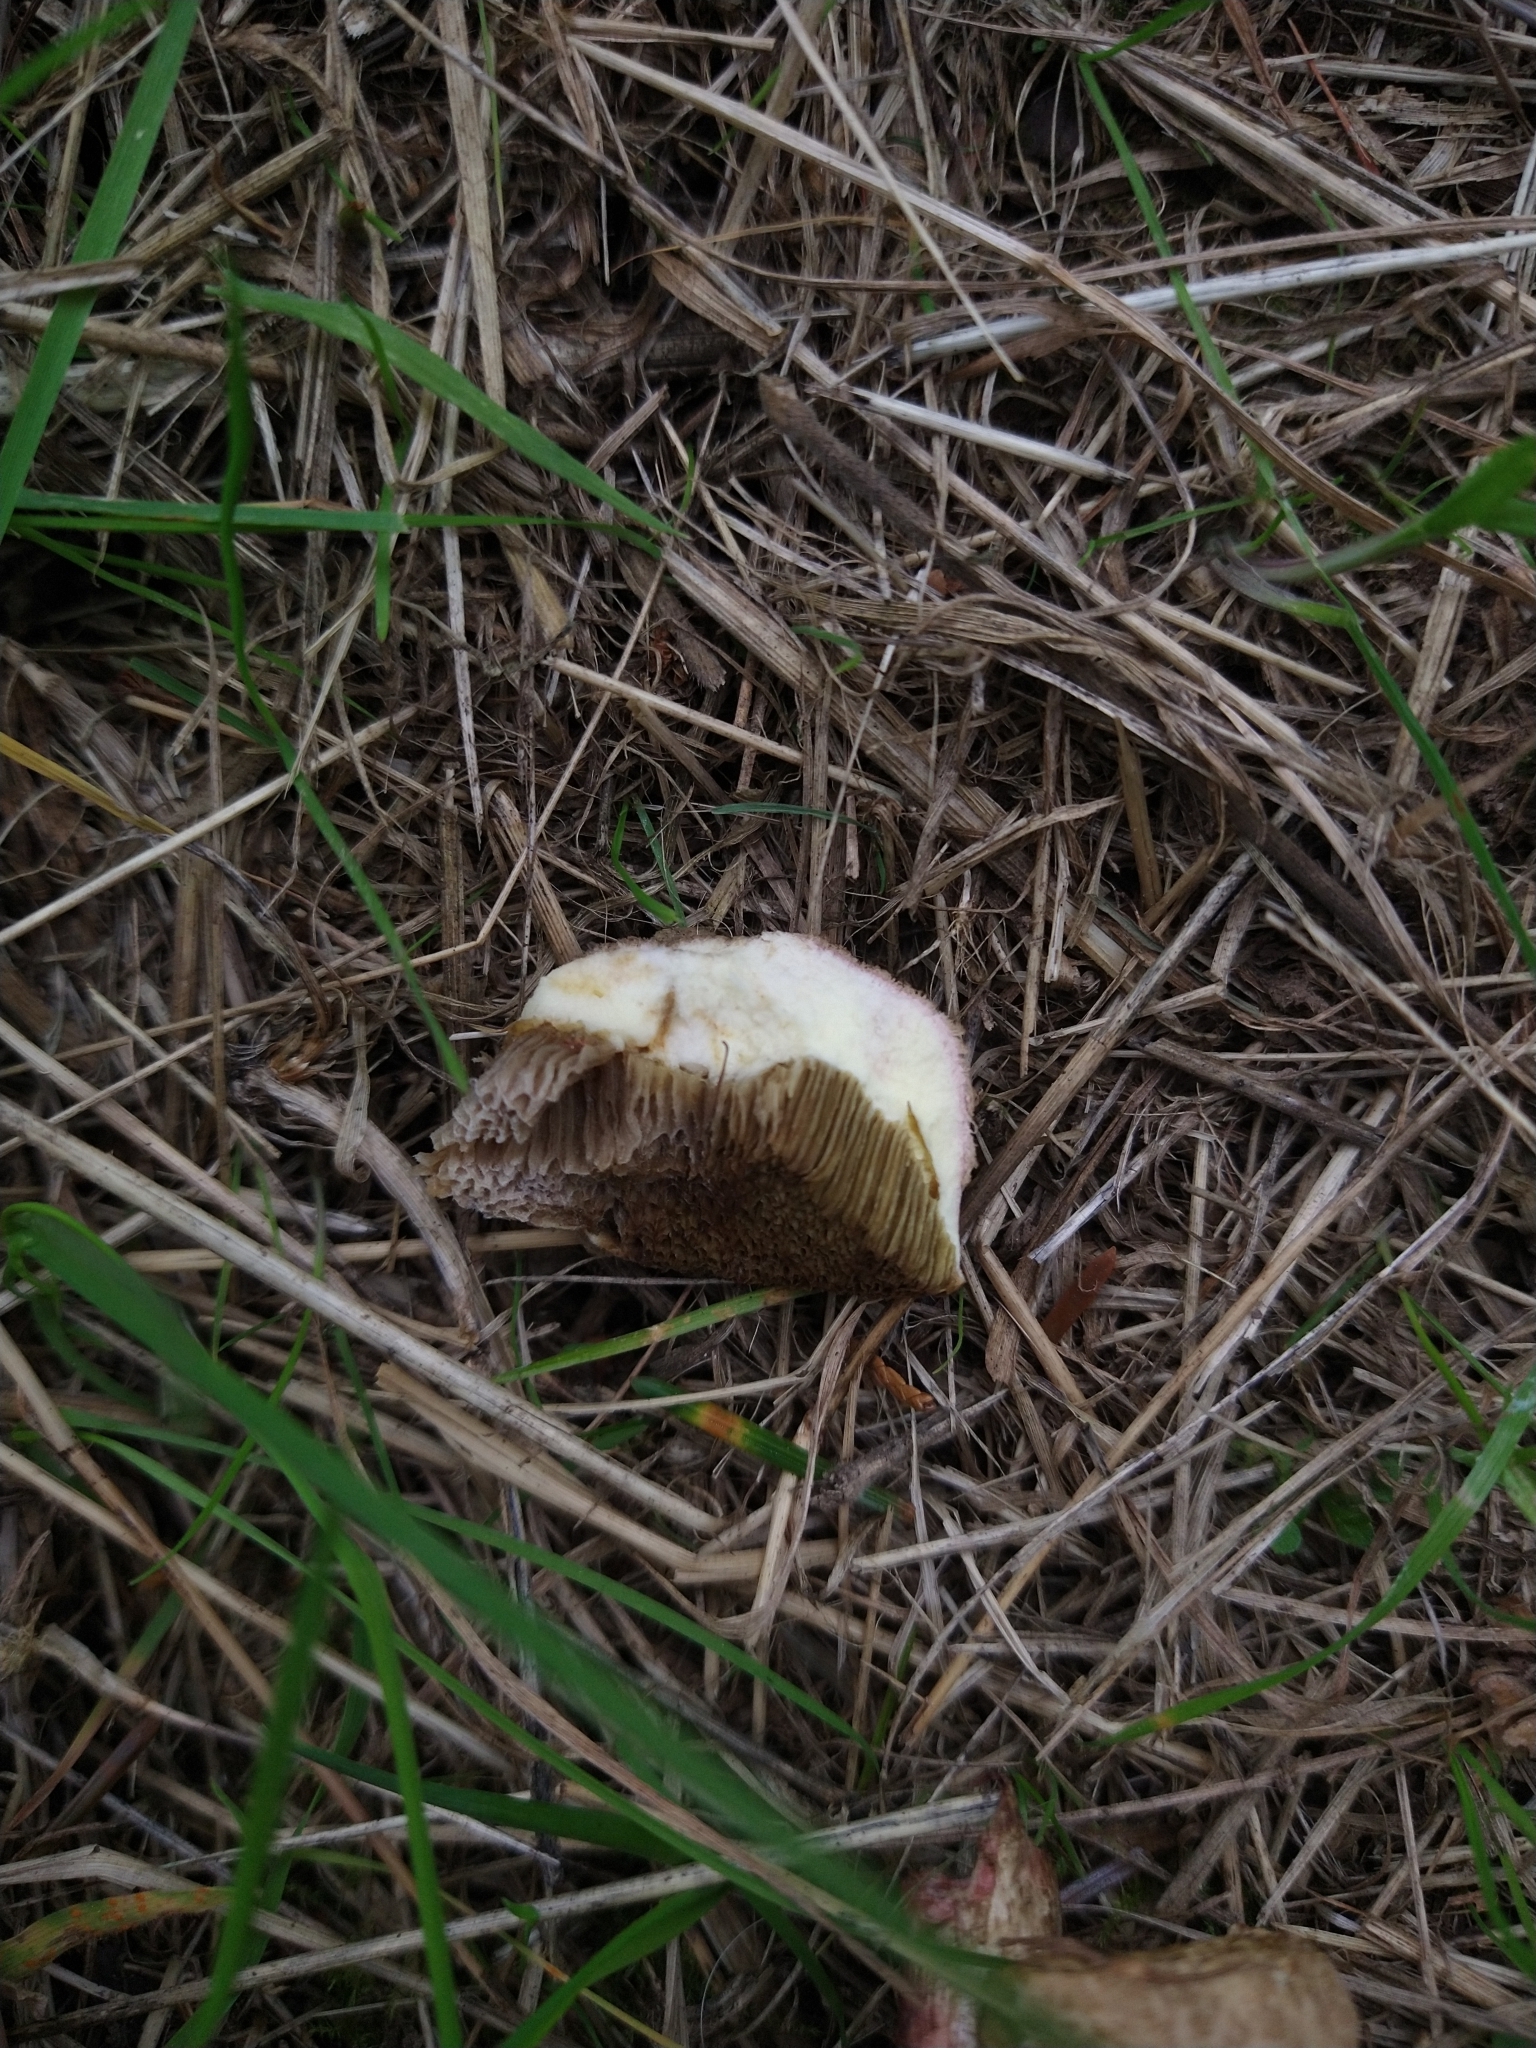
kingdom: Fungi
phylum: Basidiomycota
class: Agaricomycetes
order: Boletales
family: Boletaceae
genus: Xerocomellus
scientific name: Xerocomellus chrysenteron
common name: Red-cracking bolete
